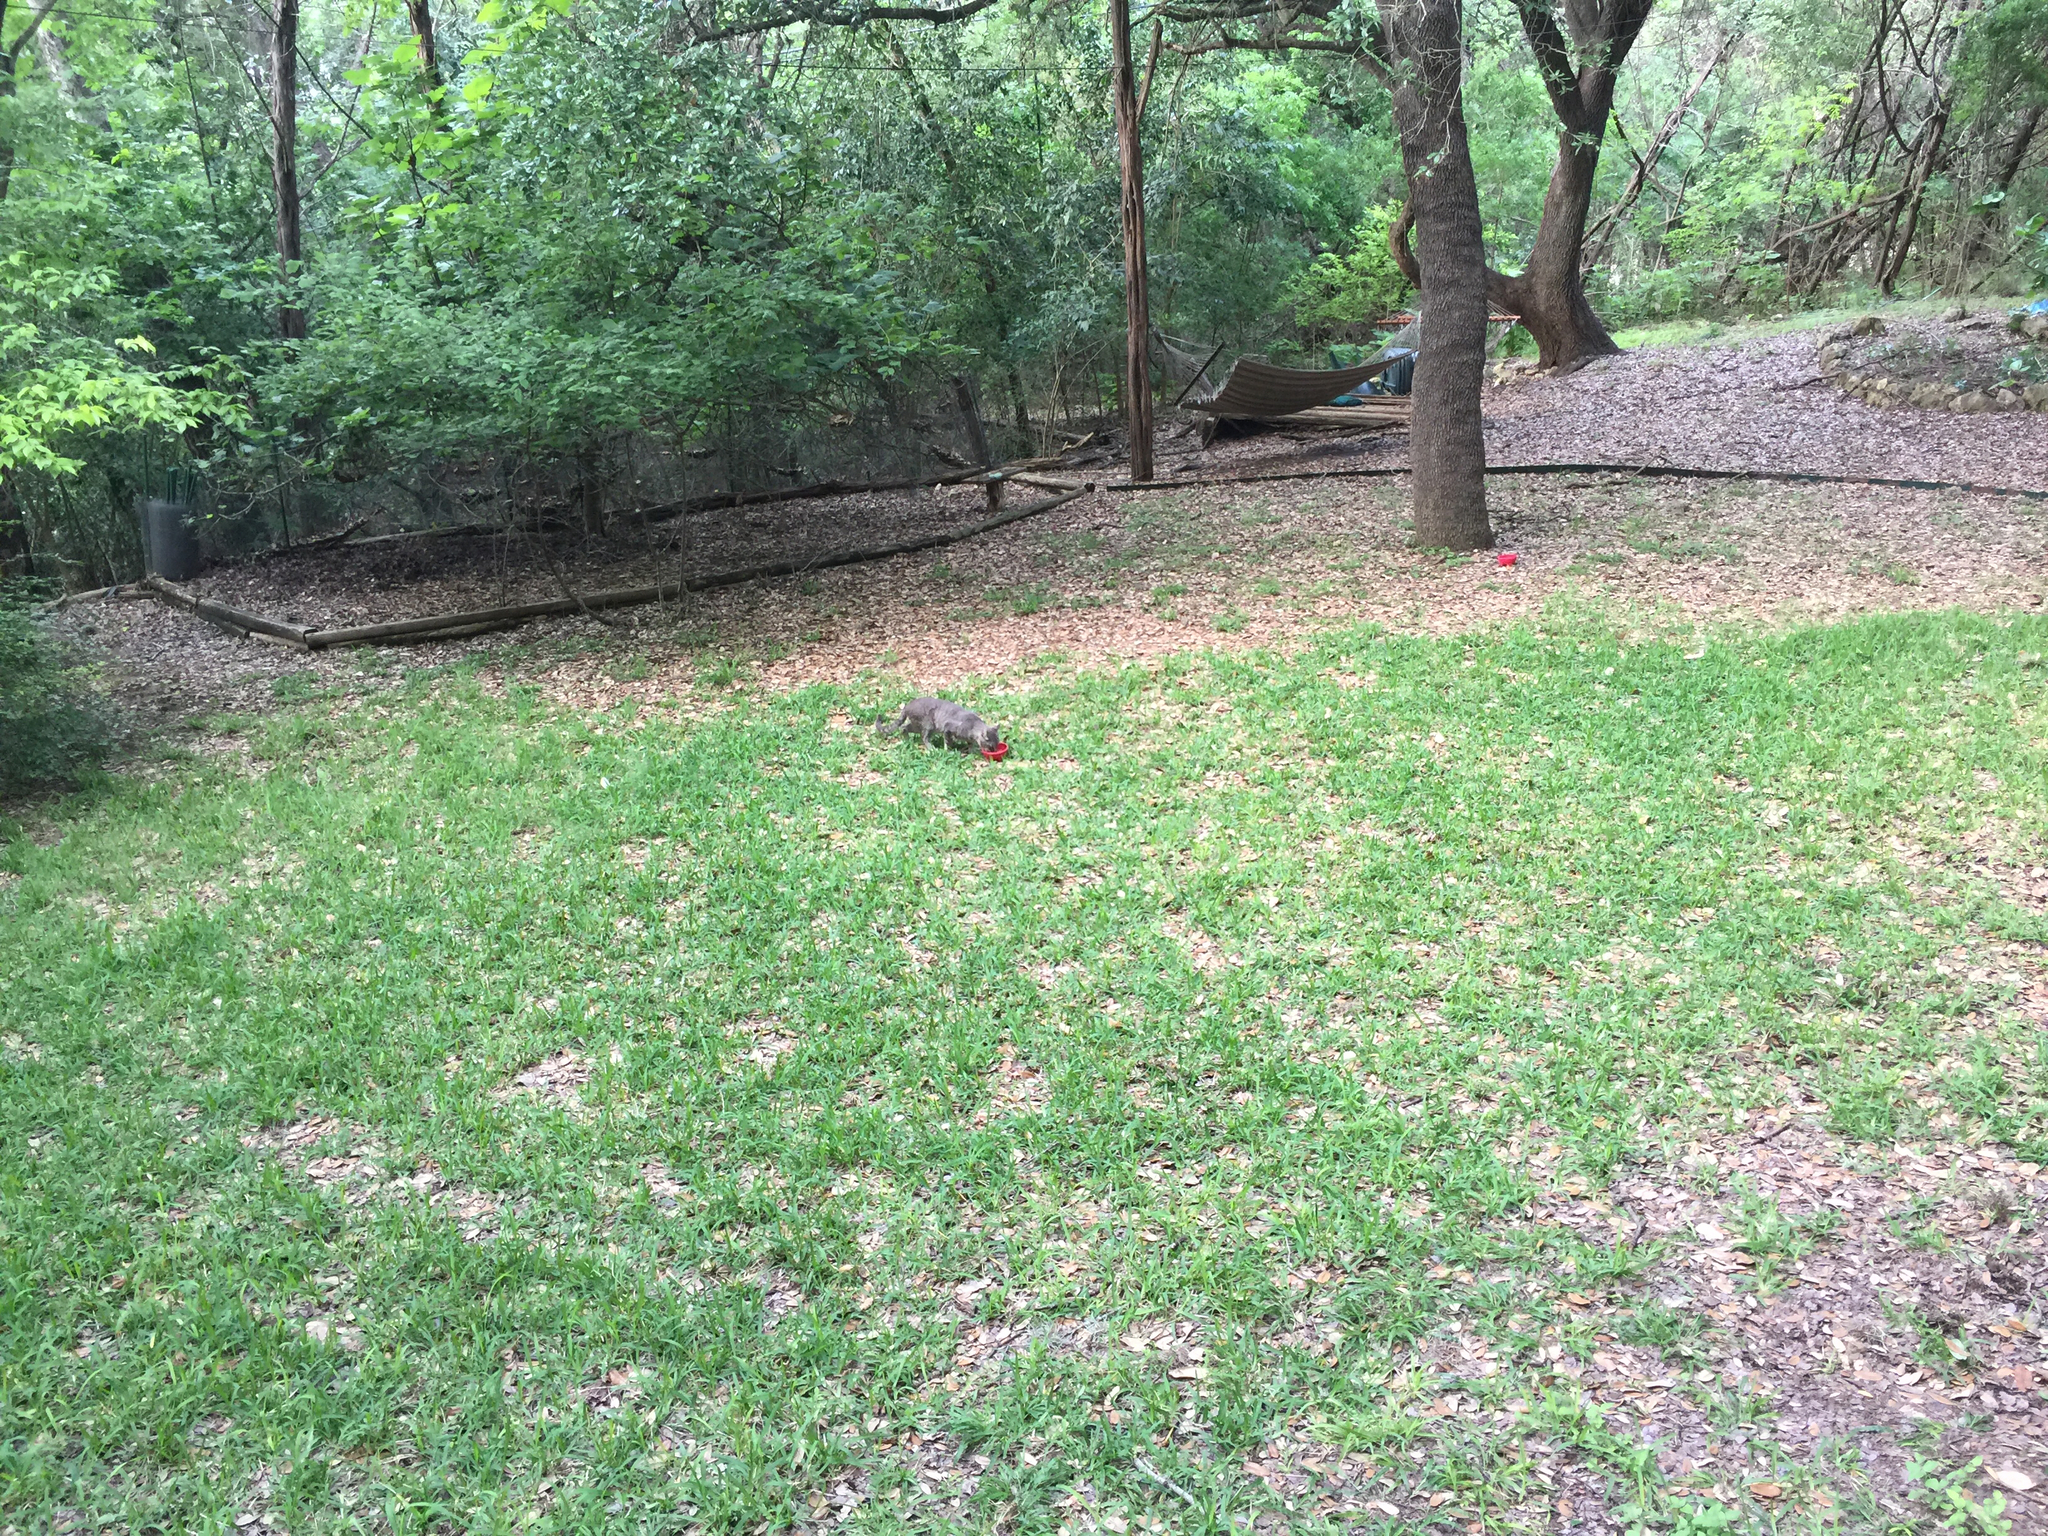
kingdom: Animalia
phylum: Chordata
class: Mammalia
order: Carnivora
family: Felidae
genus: Felis
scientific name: Felis catus
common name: Domestic cat
